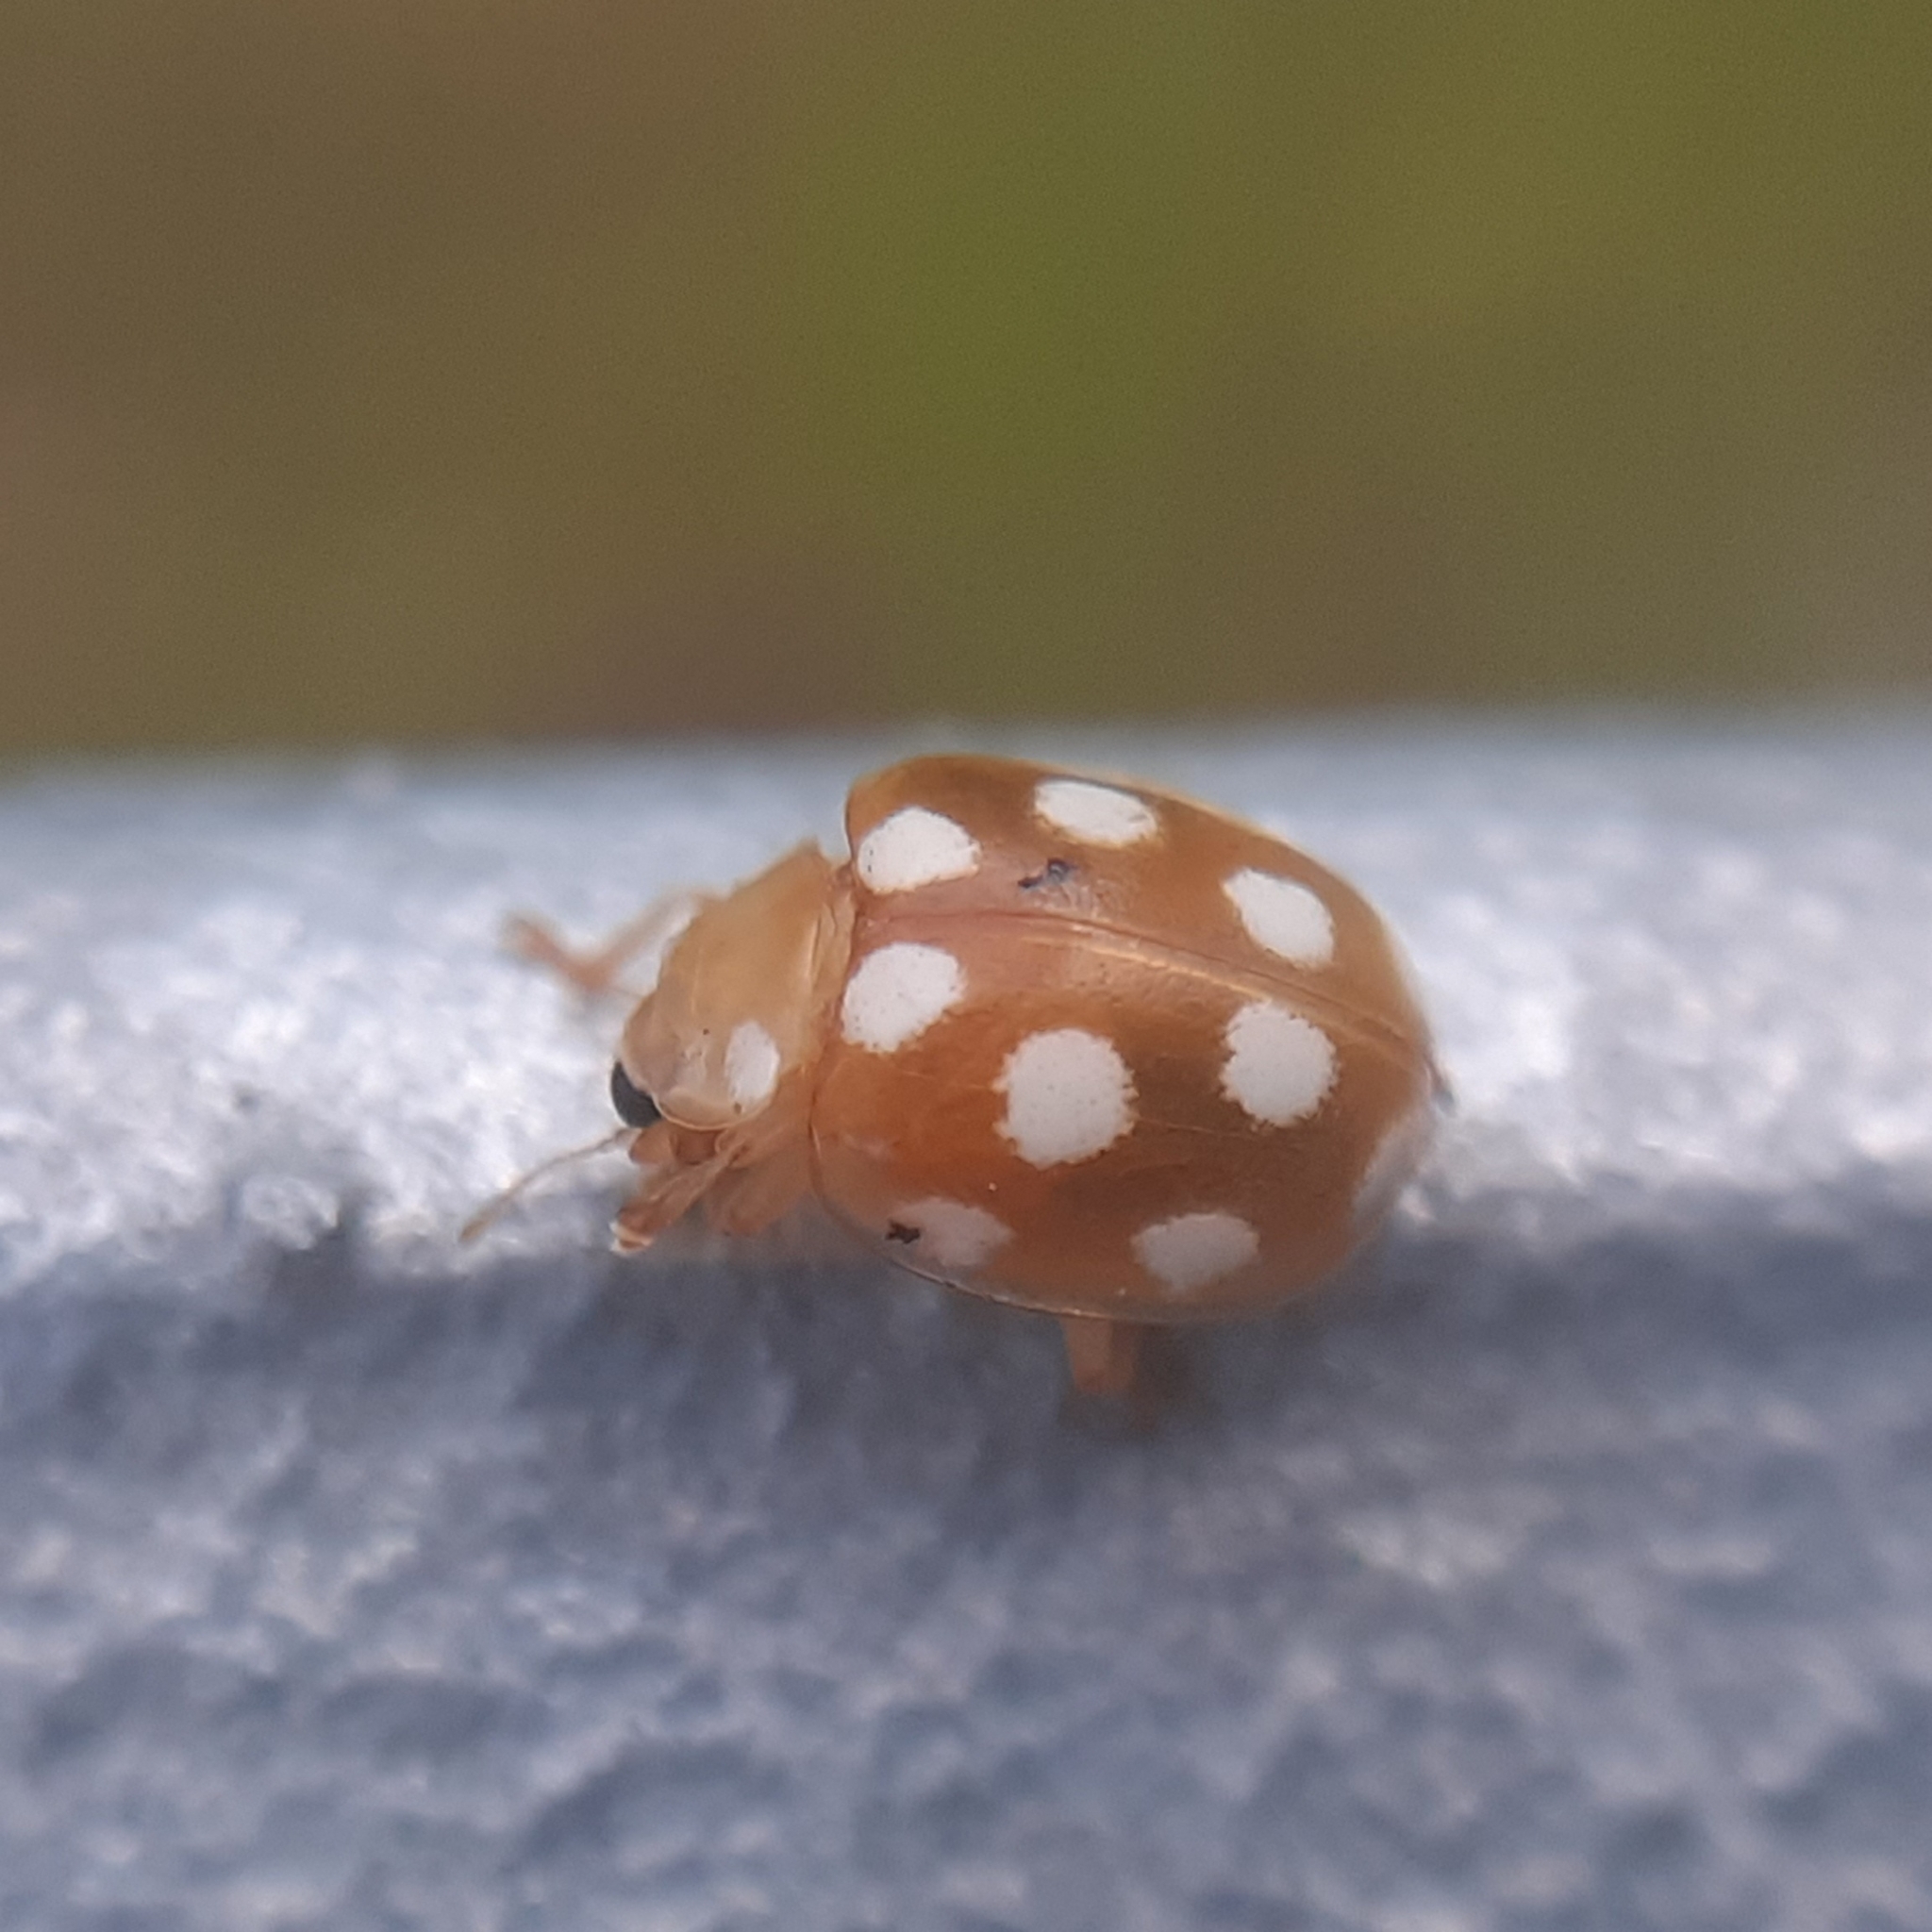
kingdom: Animalia
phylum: Arthropoda
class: Insecta
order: Coleoptera
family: Coccinellidae
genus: Vibidia
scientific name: Vibidia duodecimguttata
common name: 12-spot ladybird
